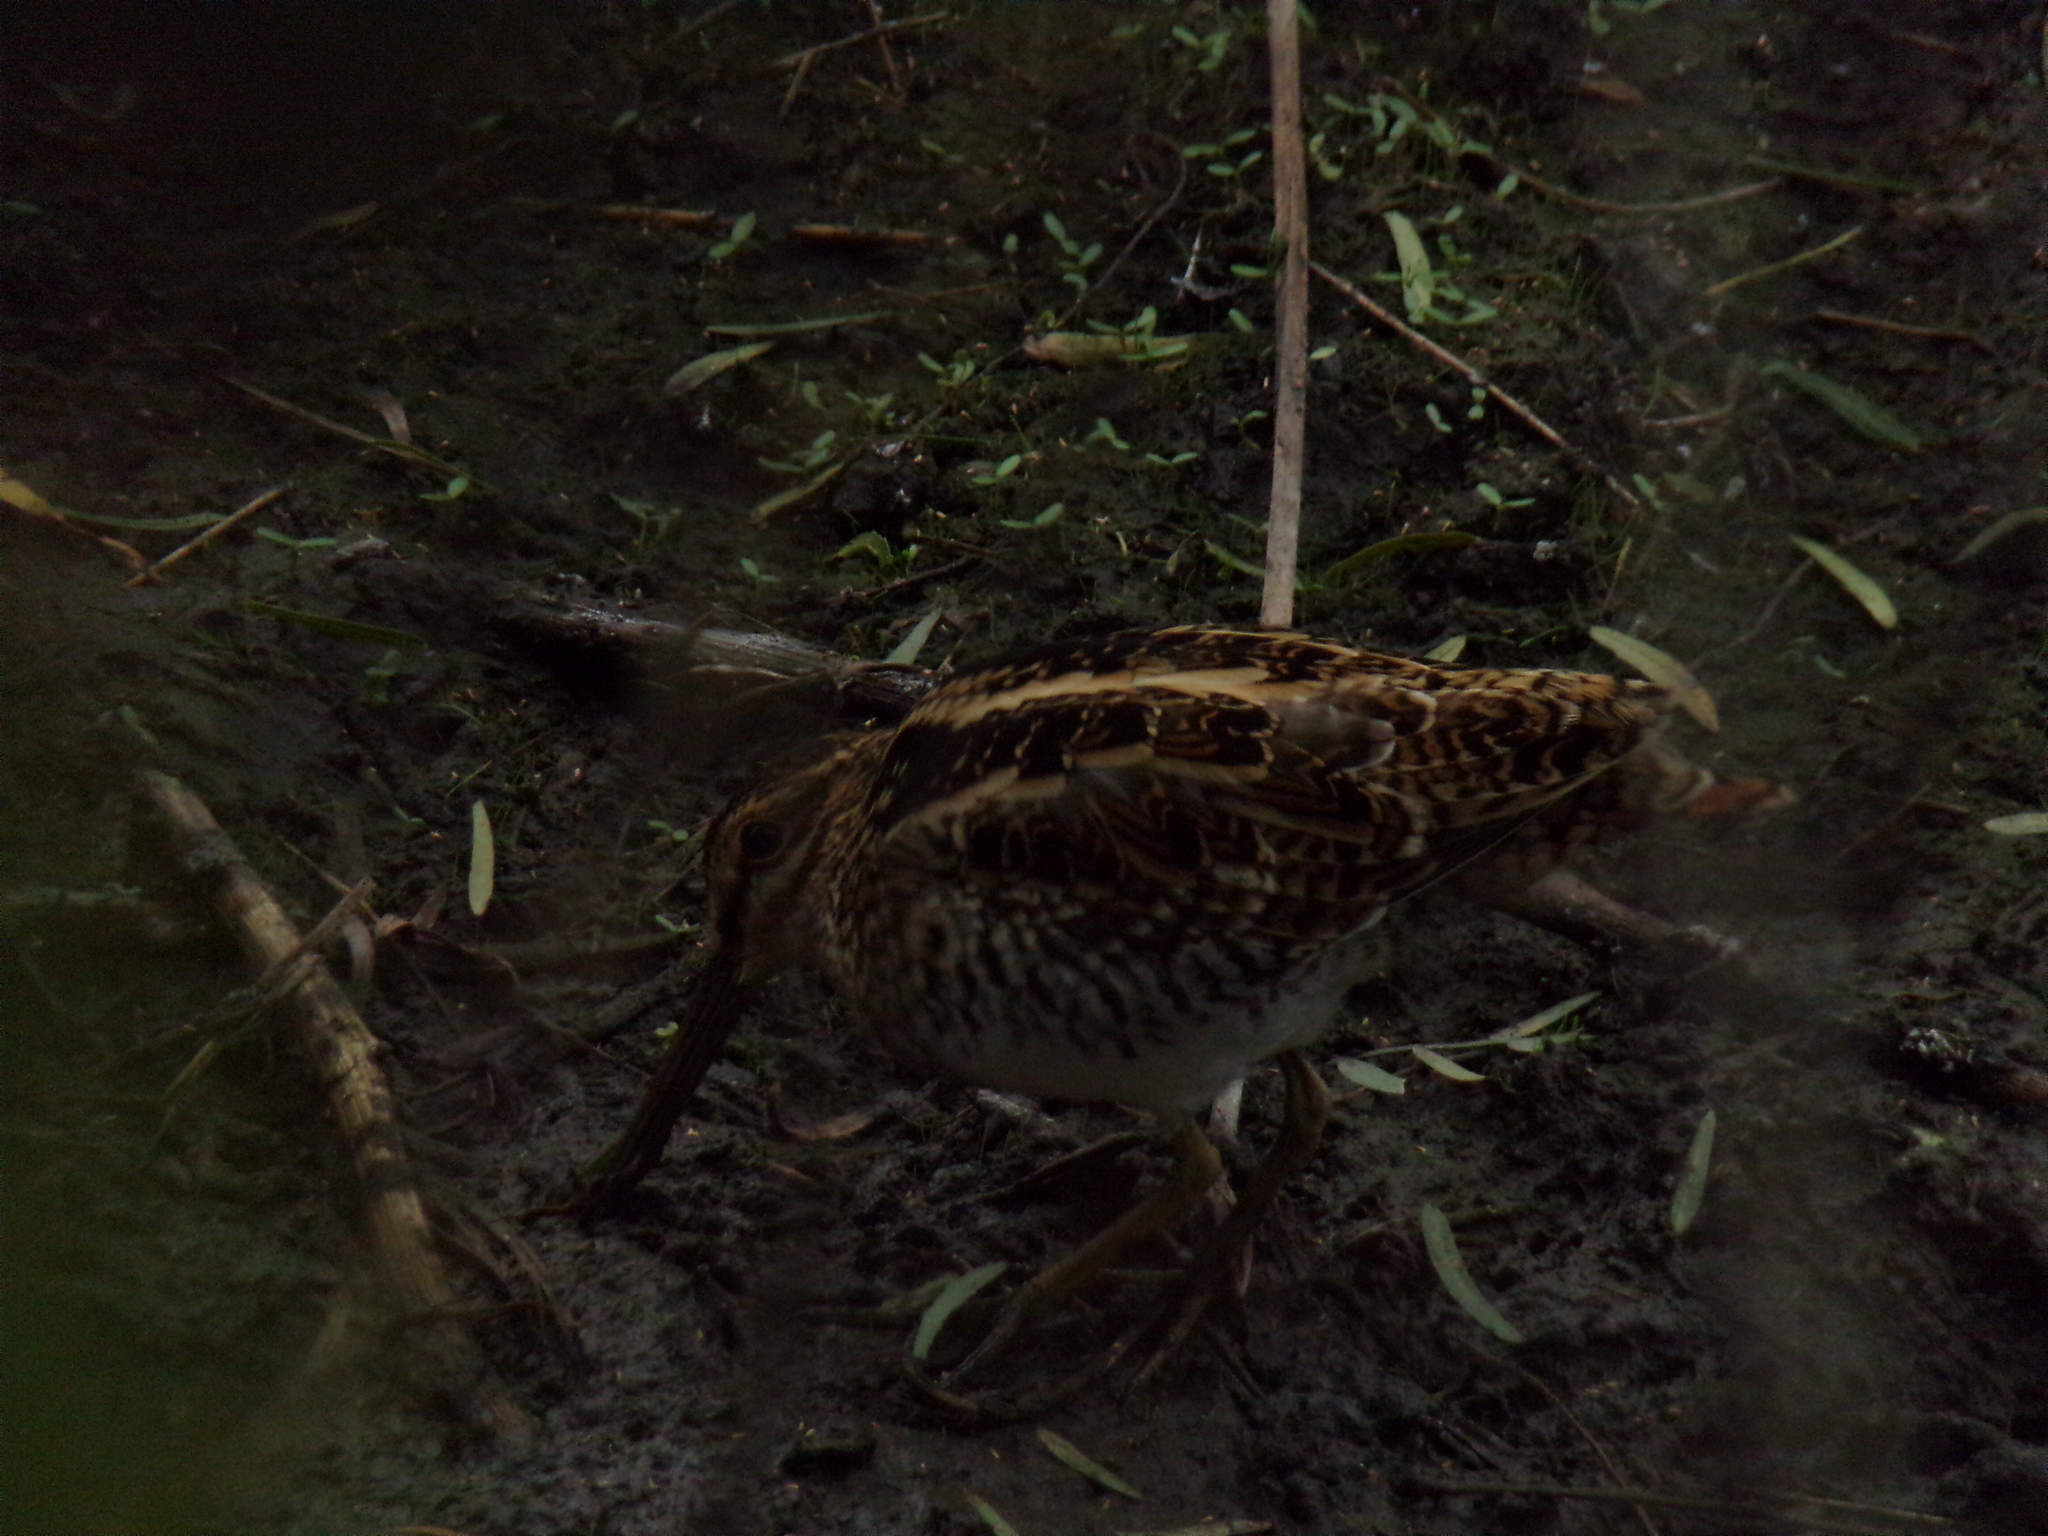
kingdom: Animalia
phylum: Chordata
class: Aves
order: Charadriiformes
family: Scolopacidae
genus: Gallinago
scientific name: Gallinago delicata
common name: Wilson's snipe
